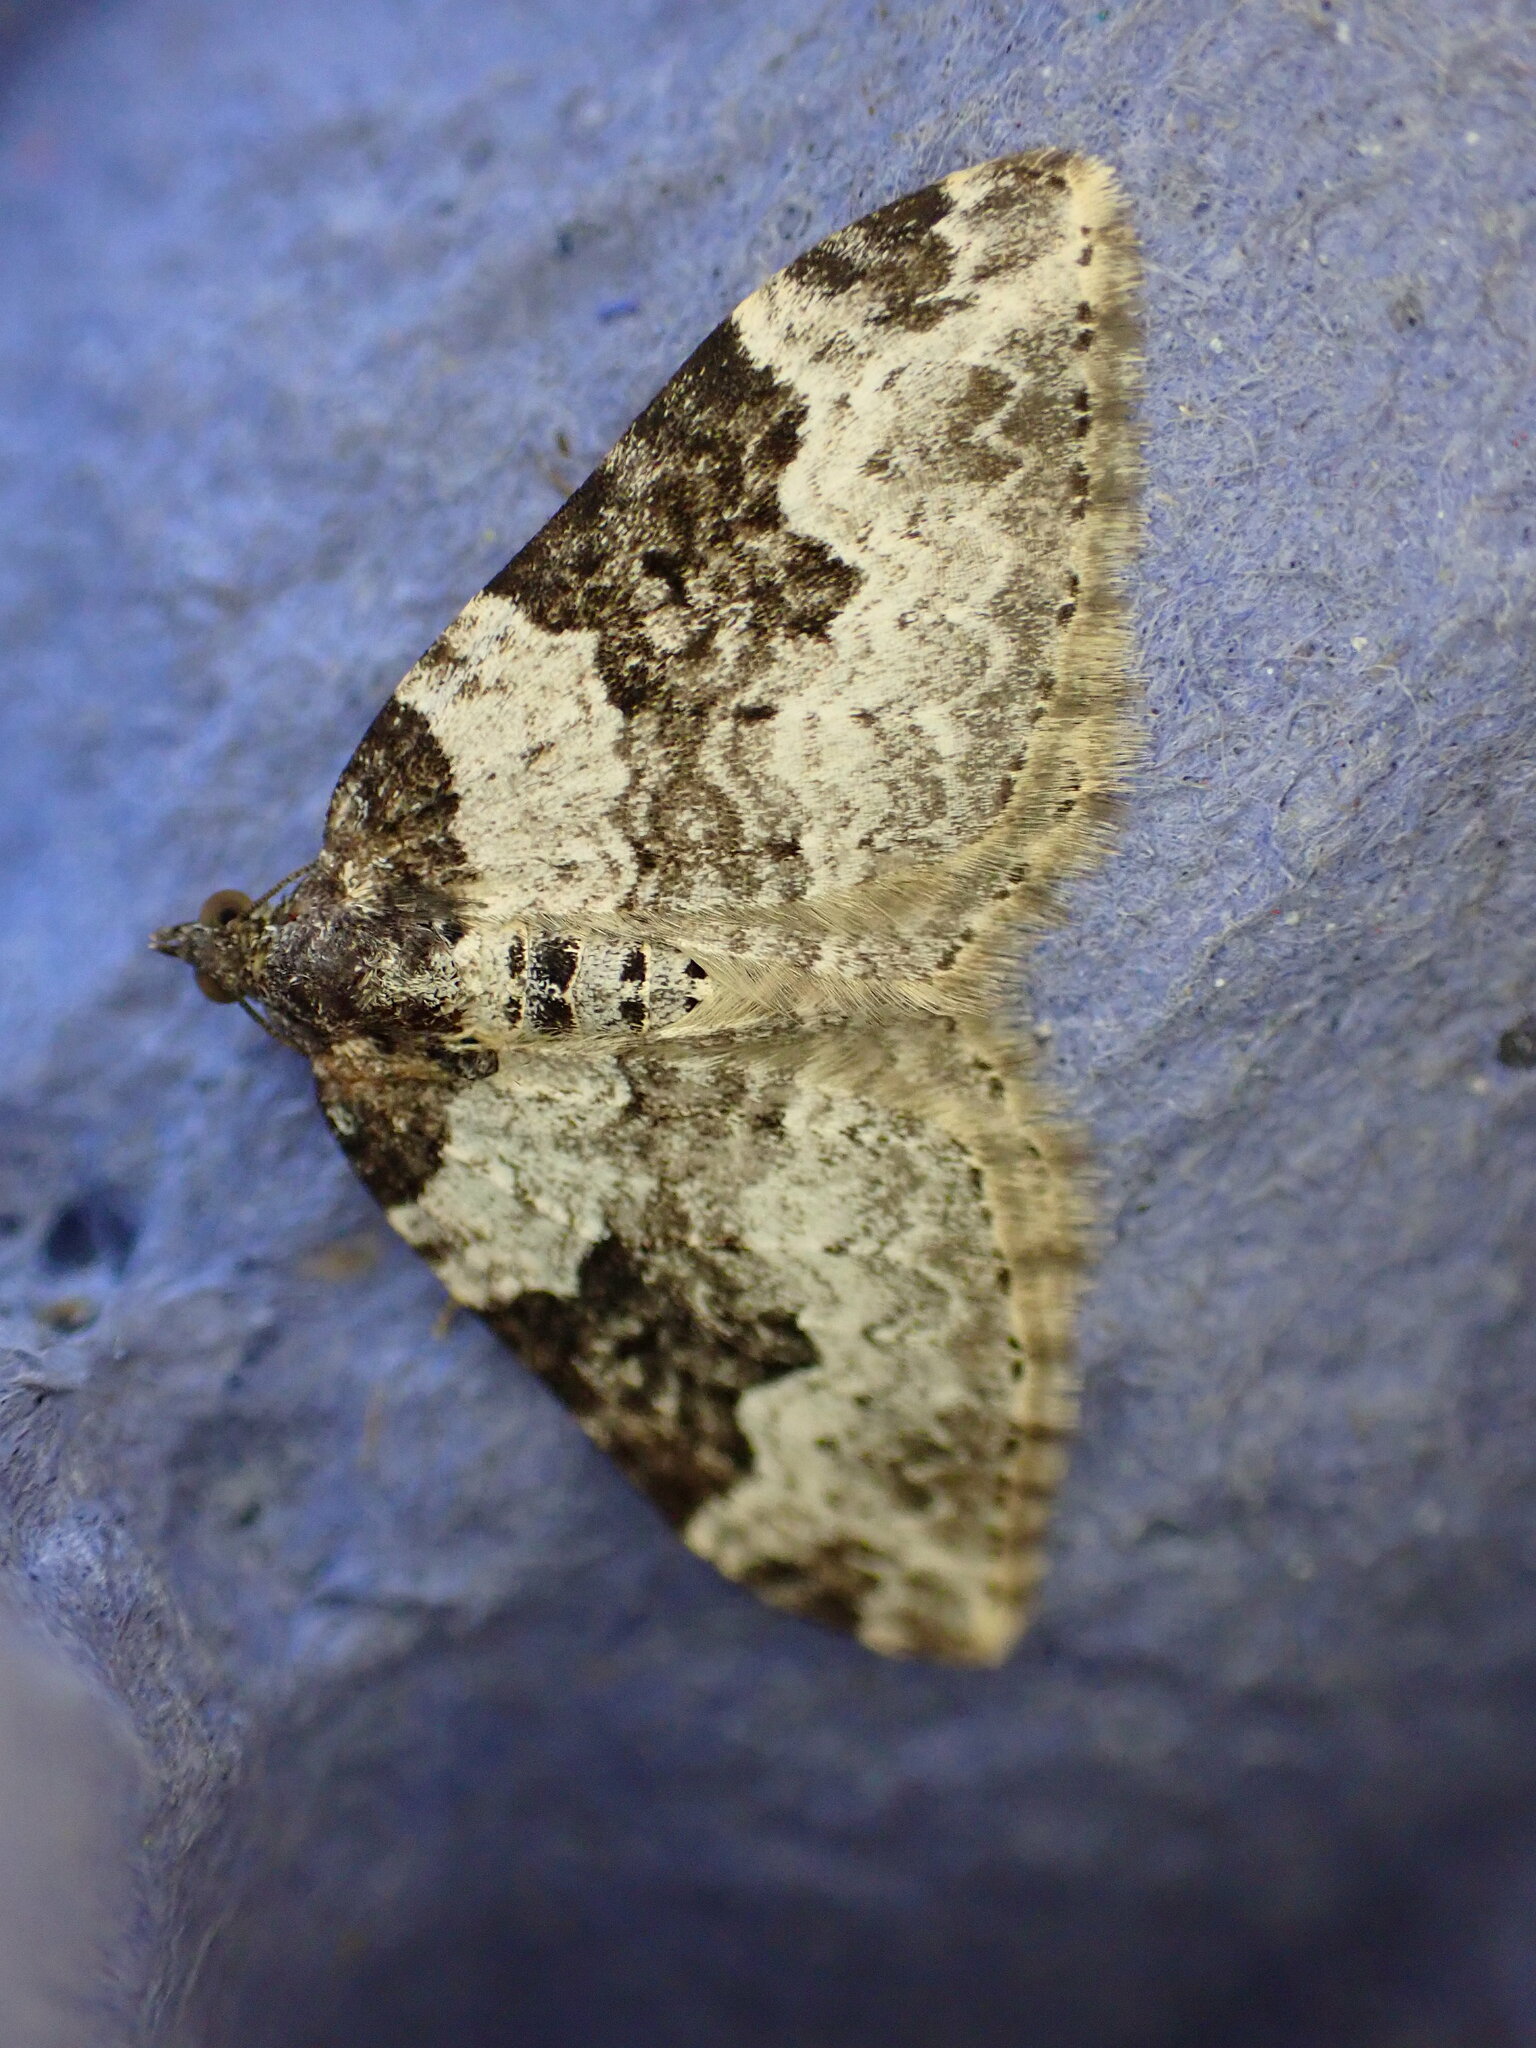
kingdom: Animalia
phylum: Arthropoda
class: Insecta
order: Lepidoptera
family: Geometridae
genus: Xanthorhoe
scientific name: Xanthorhoe fluctuata
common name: Garden carpet
